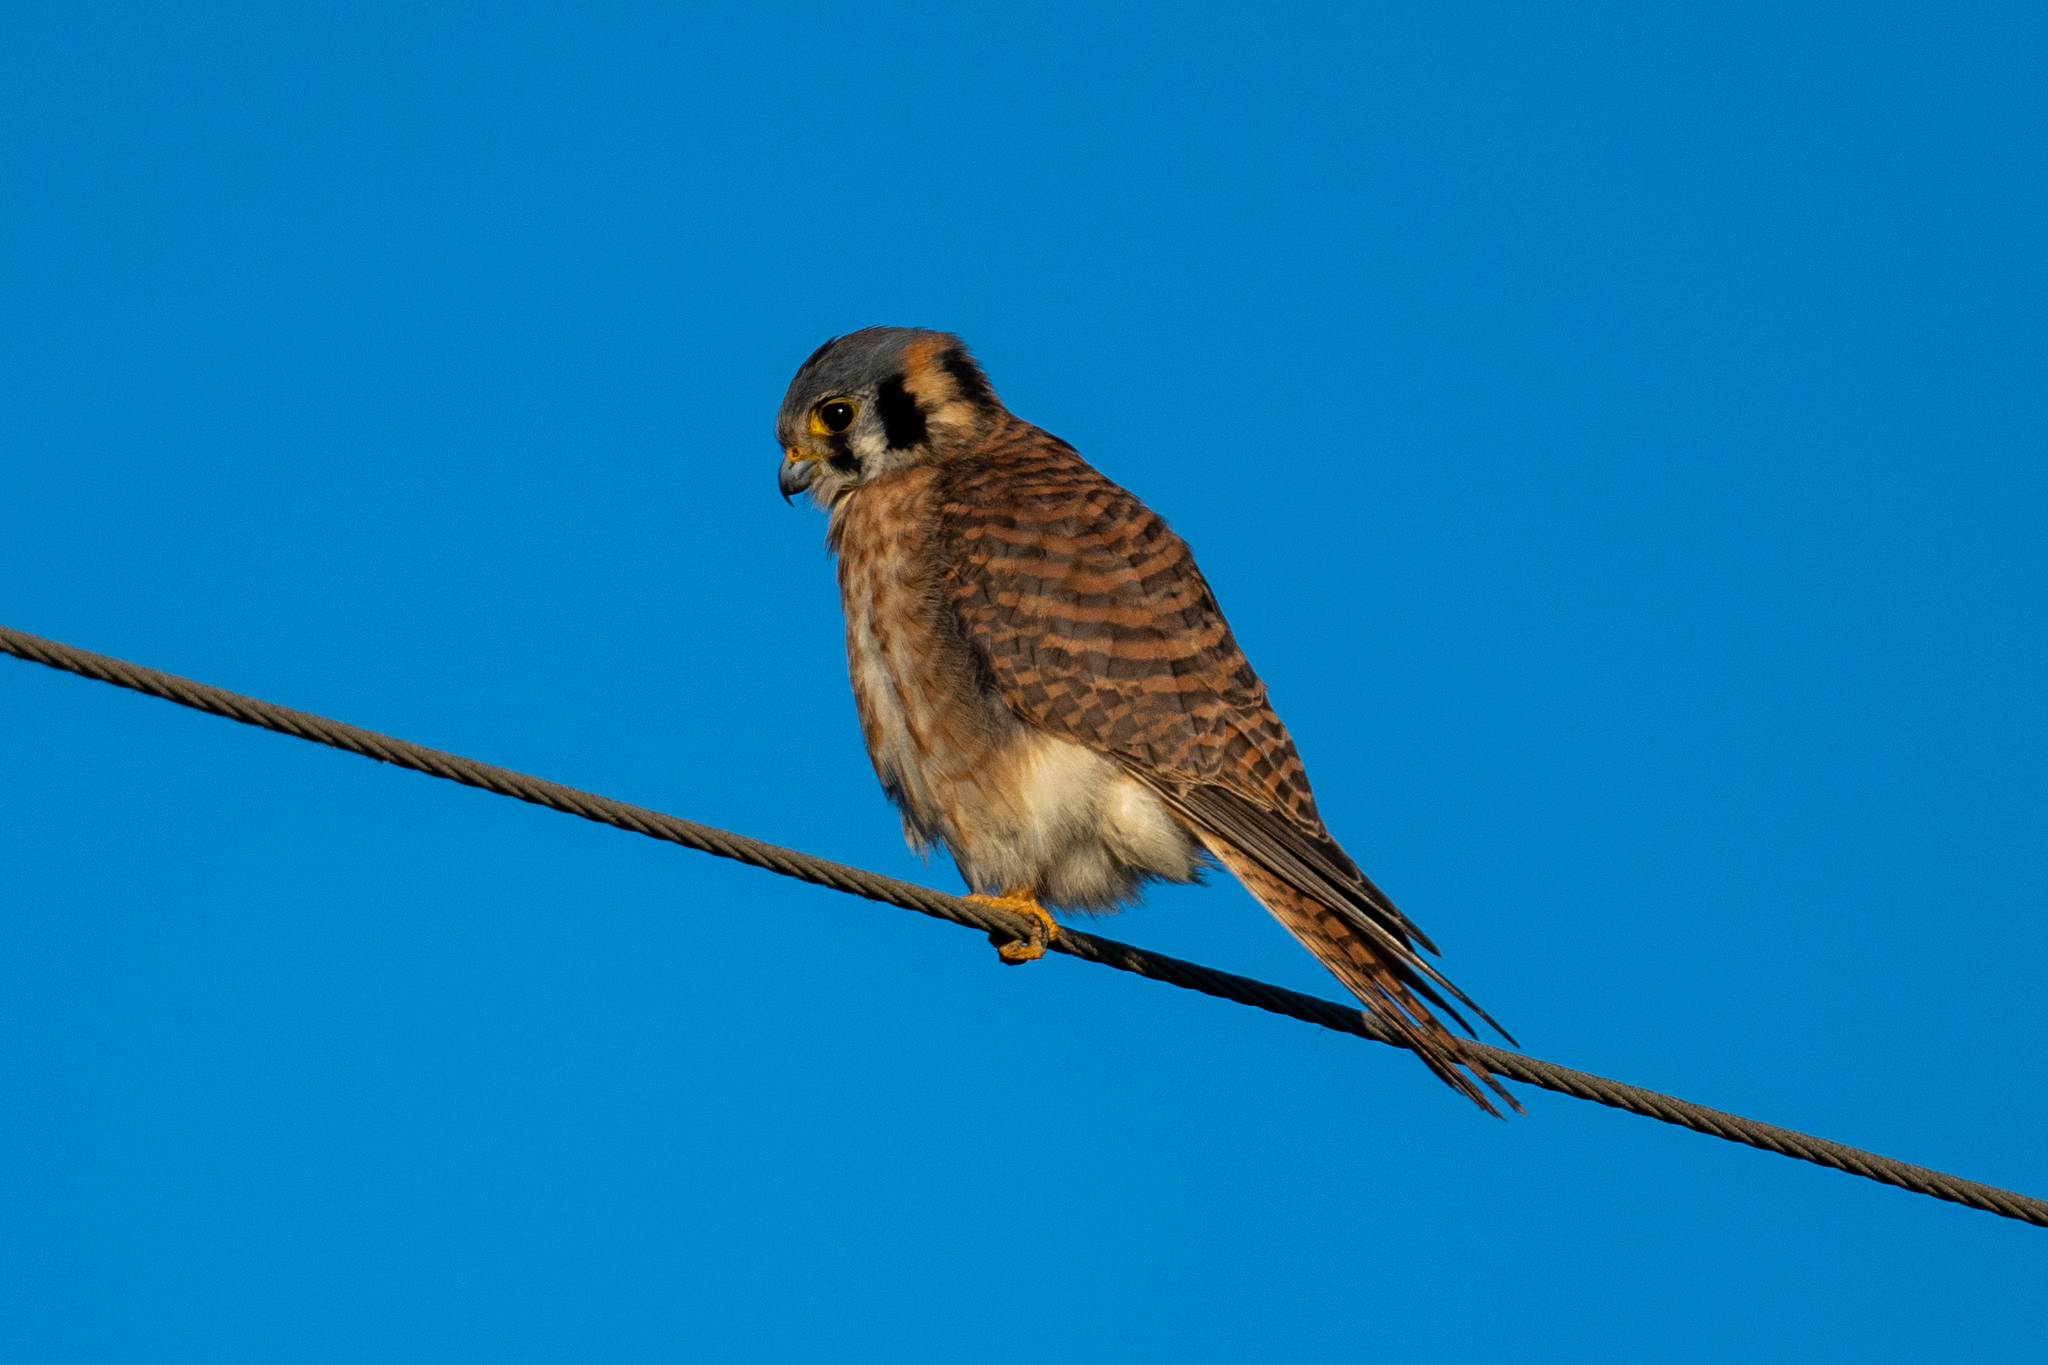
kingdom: Animalia
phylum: Chordata
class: Aves
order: Falconiformes
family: Falconidae
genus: Falco
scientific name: Falco sparverius
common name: American kestrel
